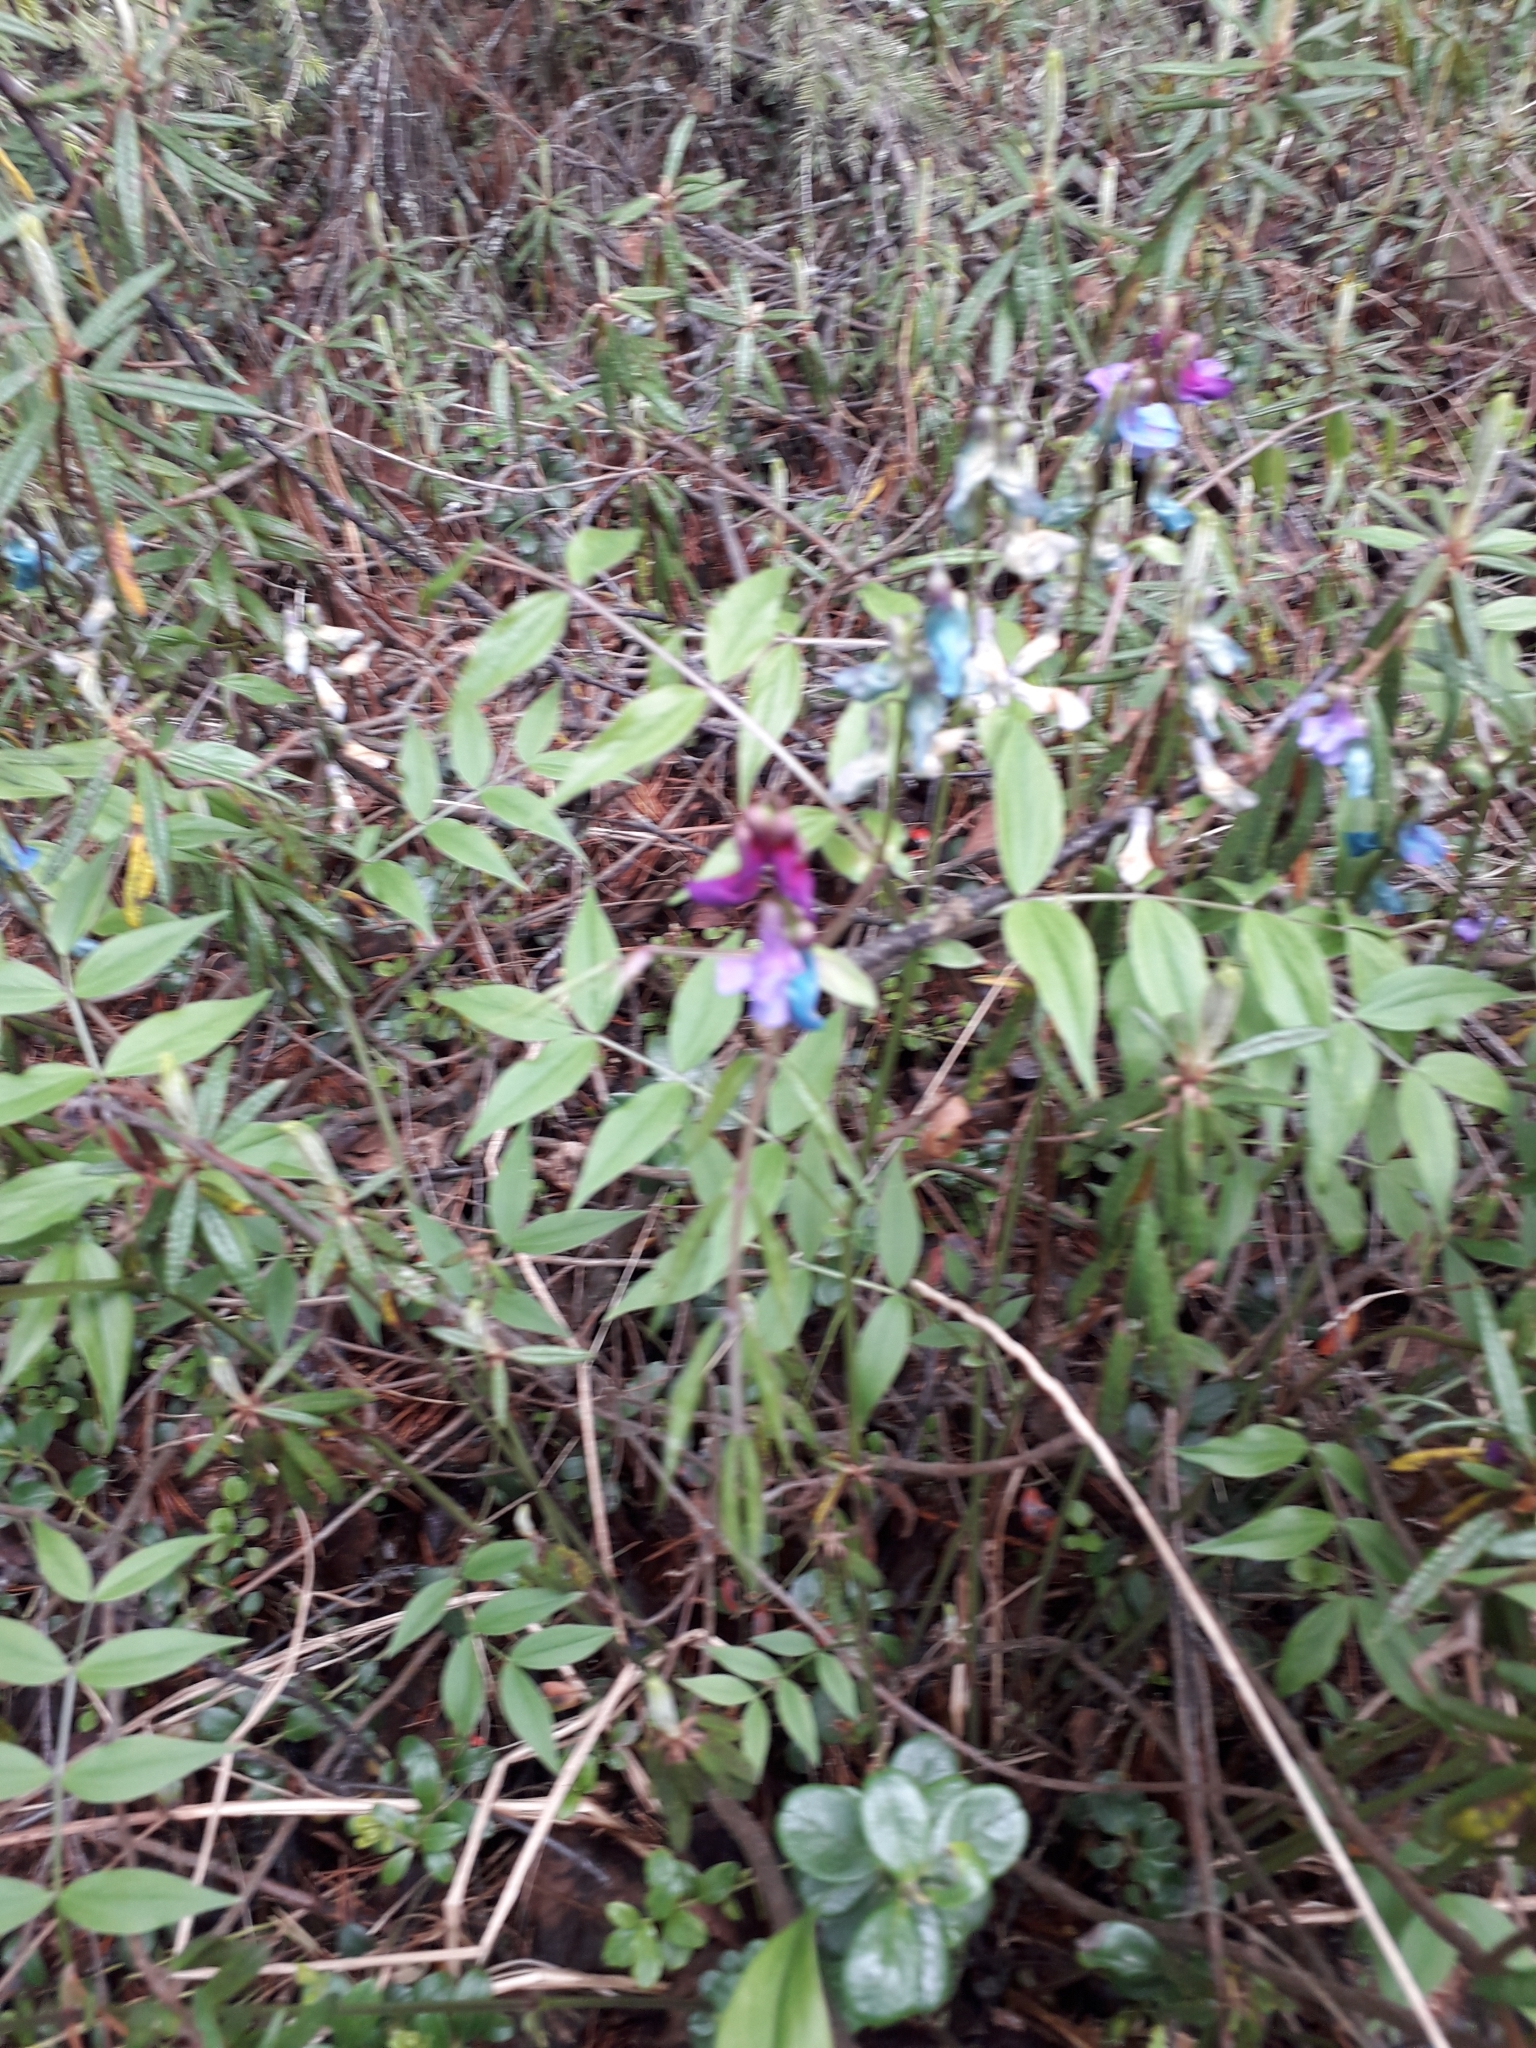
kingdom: Plantae
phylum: Tracheophyta
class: Magnoliopsida
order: Fabales
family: Fabaceae
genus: Lathyrus
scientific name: Lathyrus vernus
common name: Spring pea
